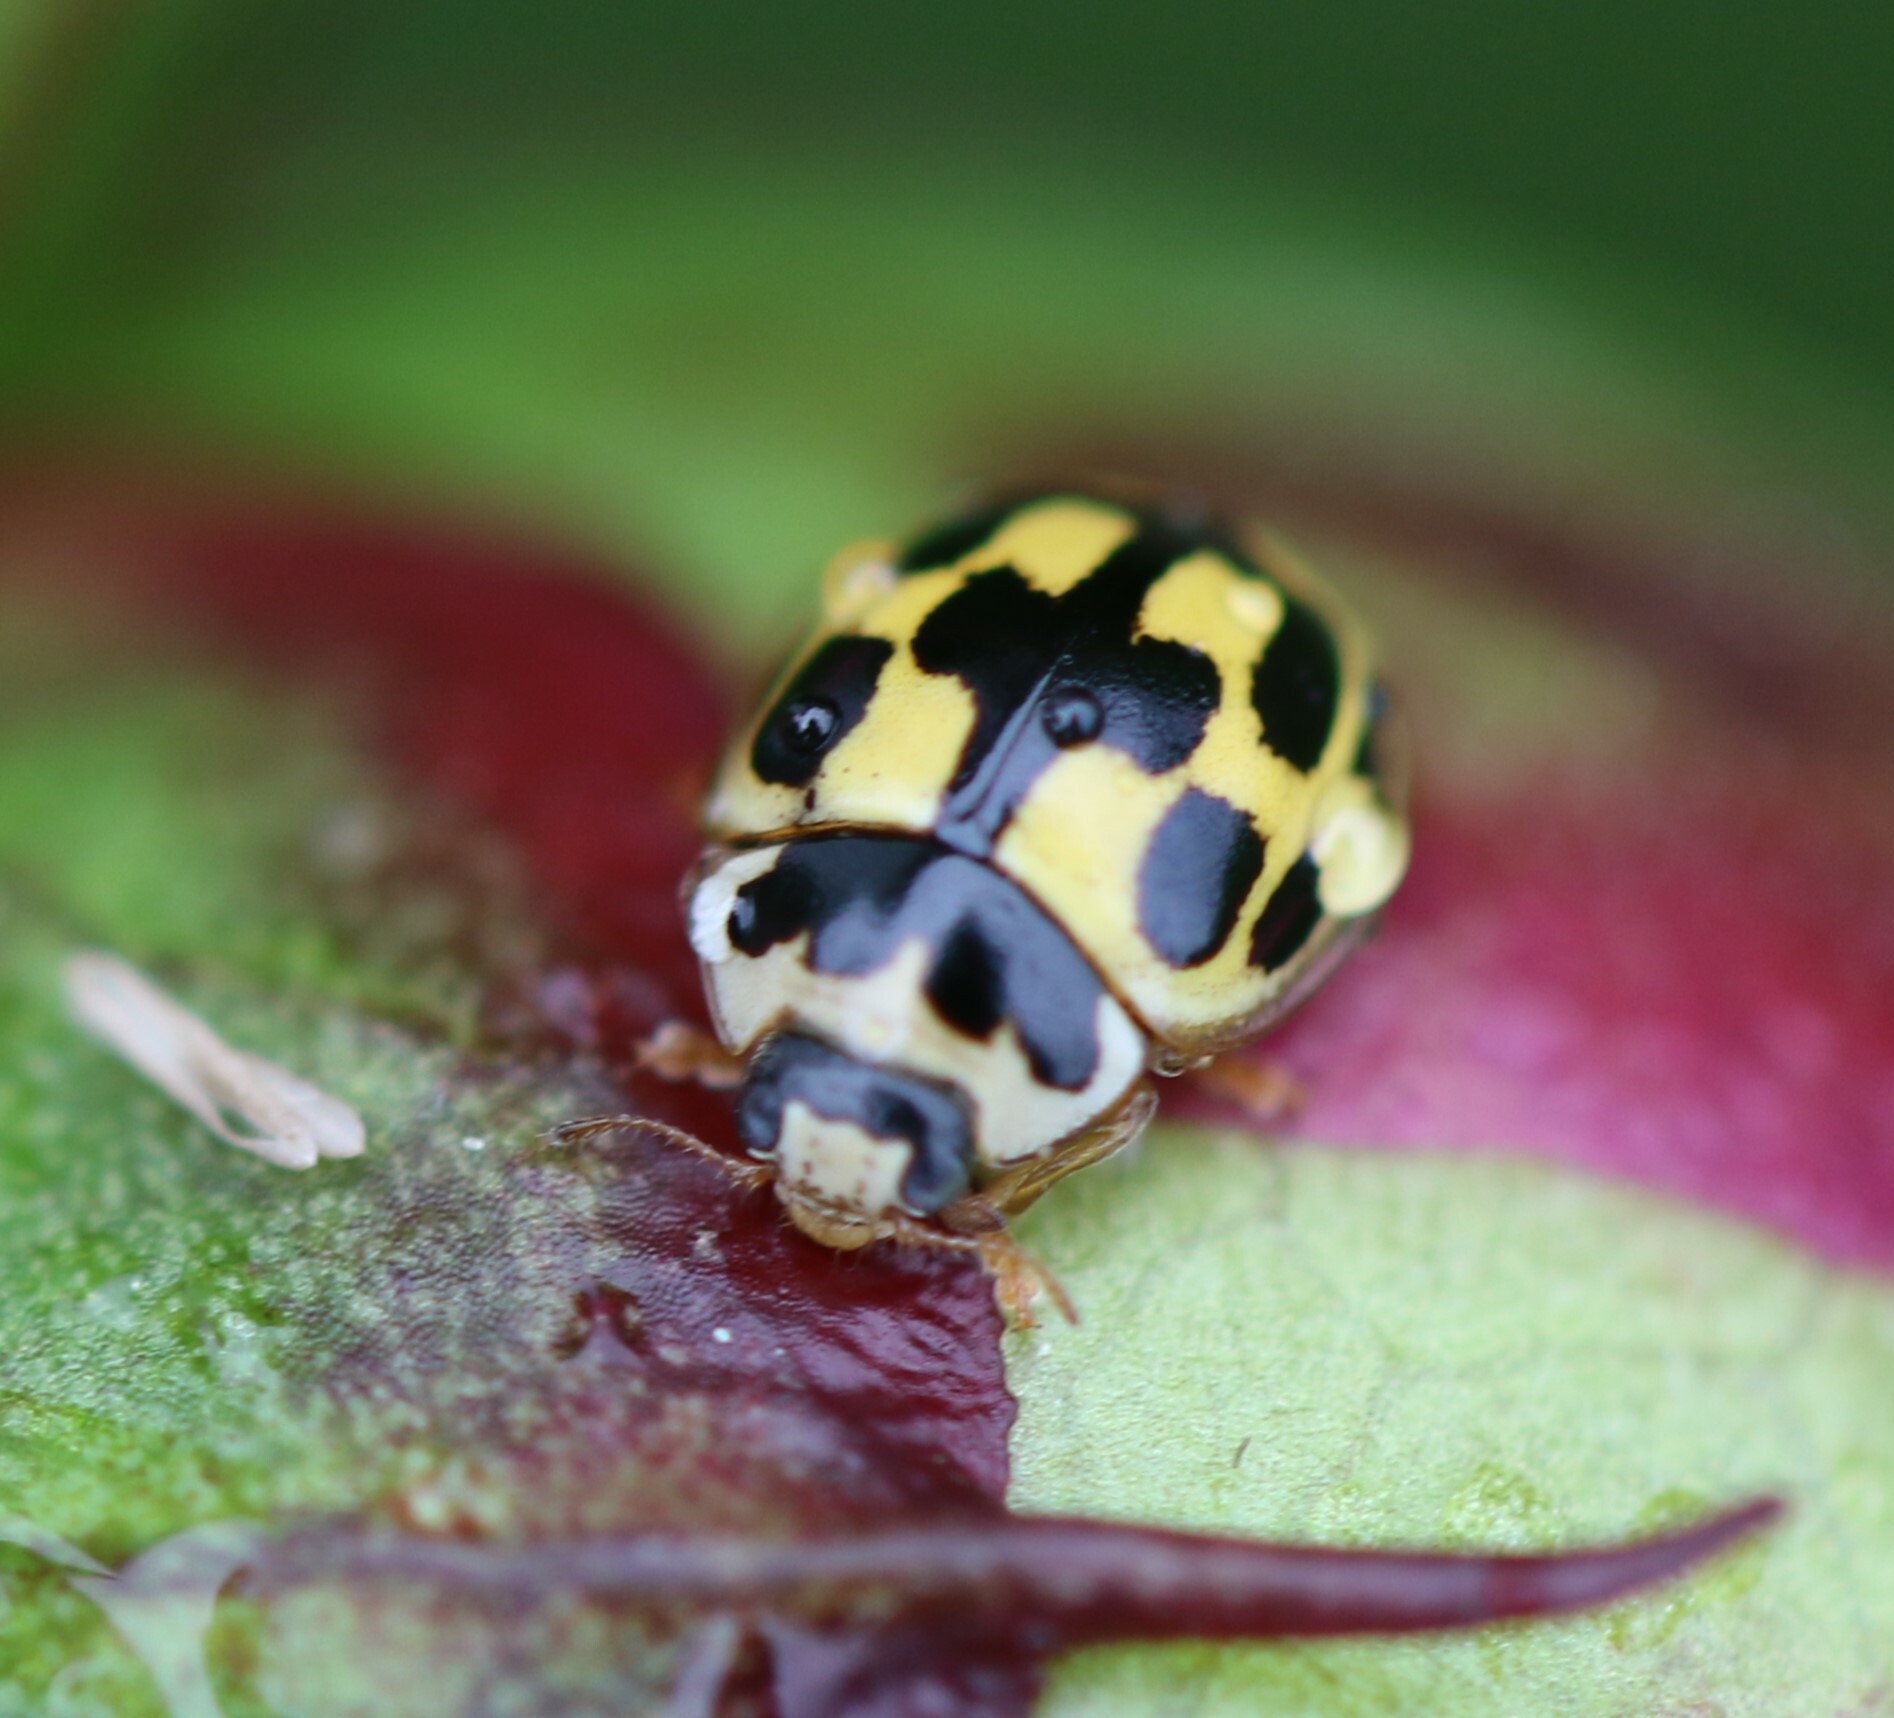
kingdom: Animalia
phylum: Arthropoda
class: Insecta
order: Coleoptera
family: Coccinellidae
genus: Propylaea
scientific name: Propylaea quatuordecimpunctata
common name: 14-spotted ladybird beetle
